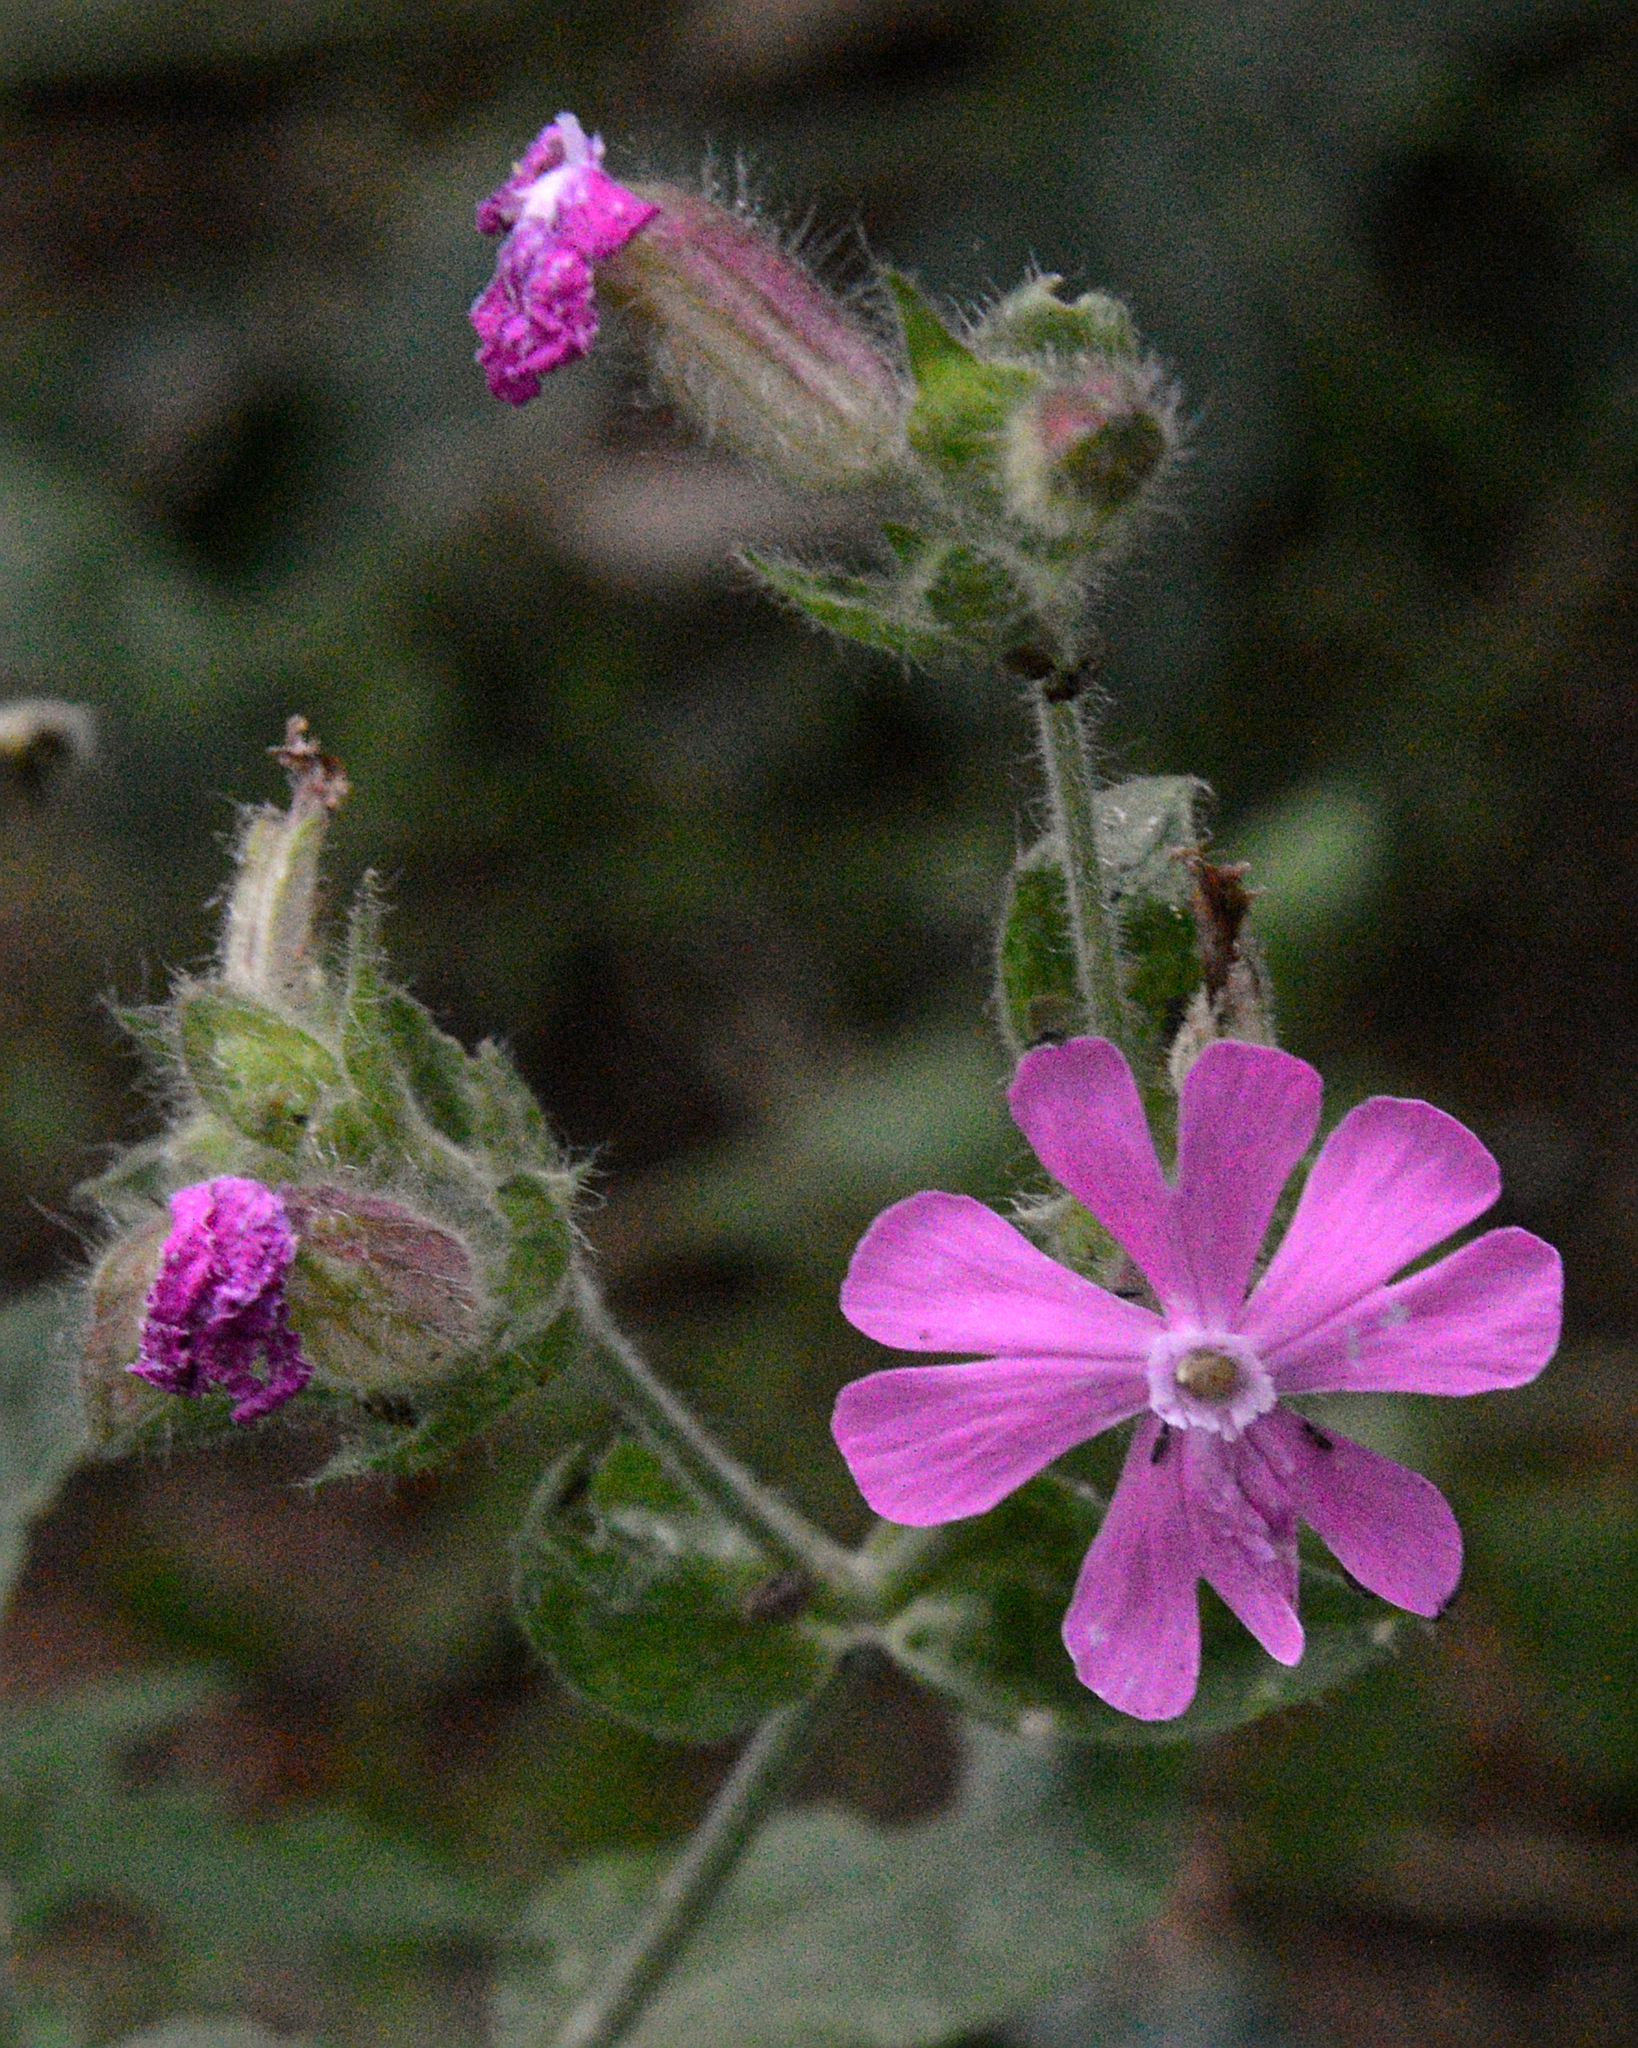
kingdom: Plantae
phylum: Tracheophyta
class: Magnoliopsida
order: Caryophyllales
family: Caryophyllaceae
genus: Silene
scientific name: Silene dioica
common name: Red campion
